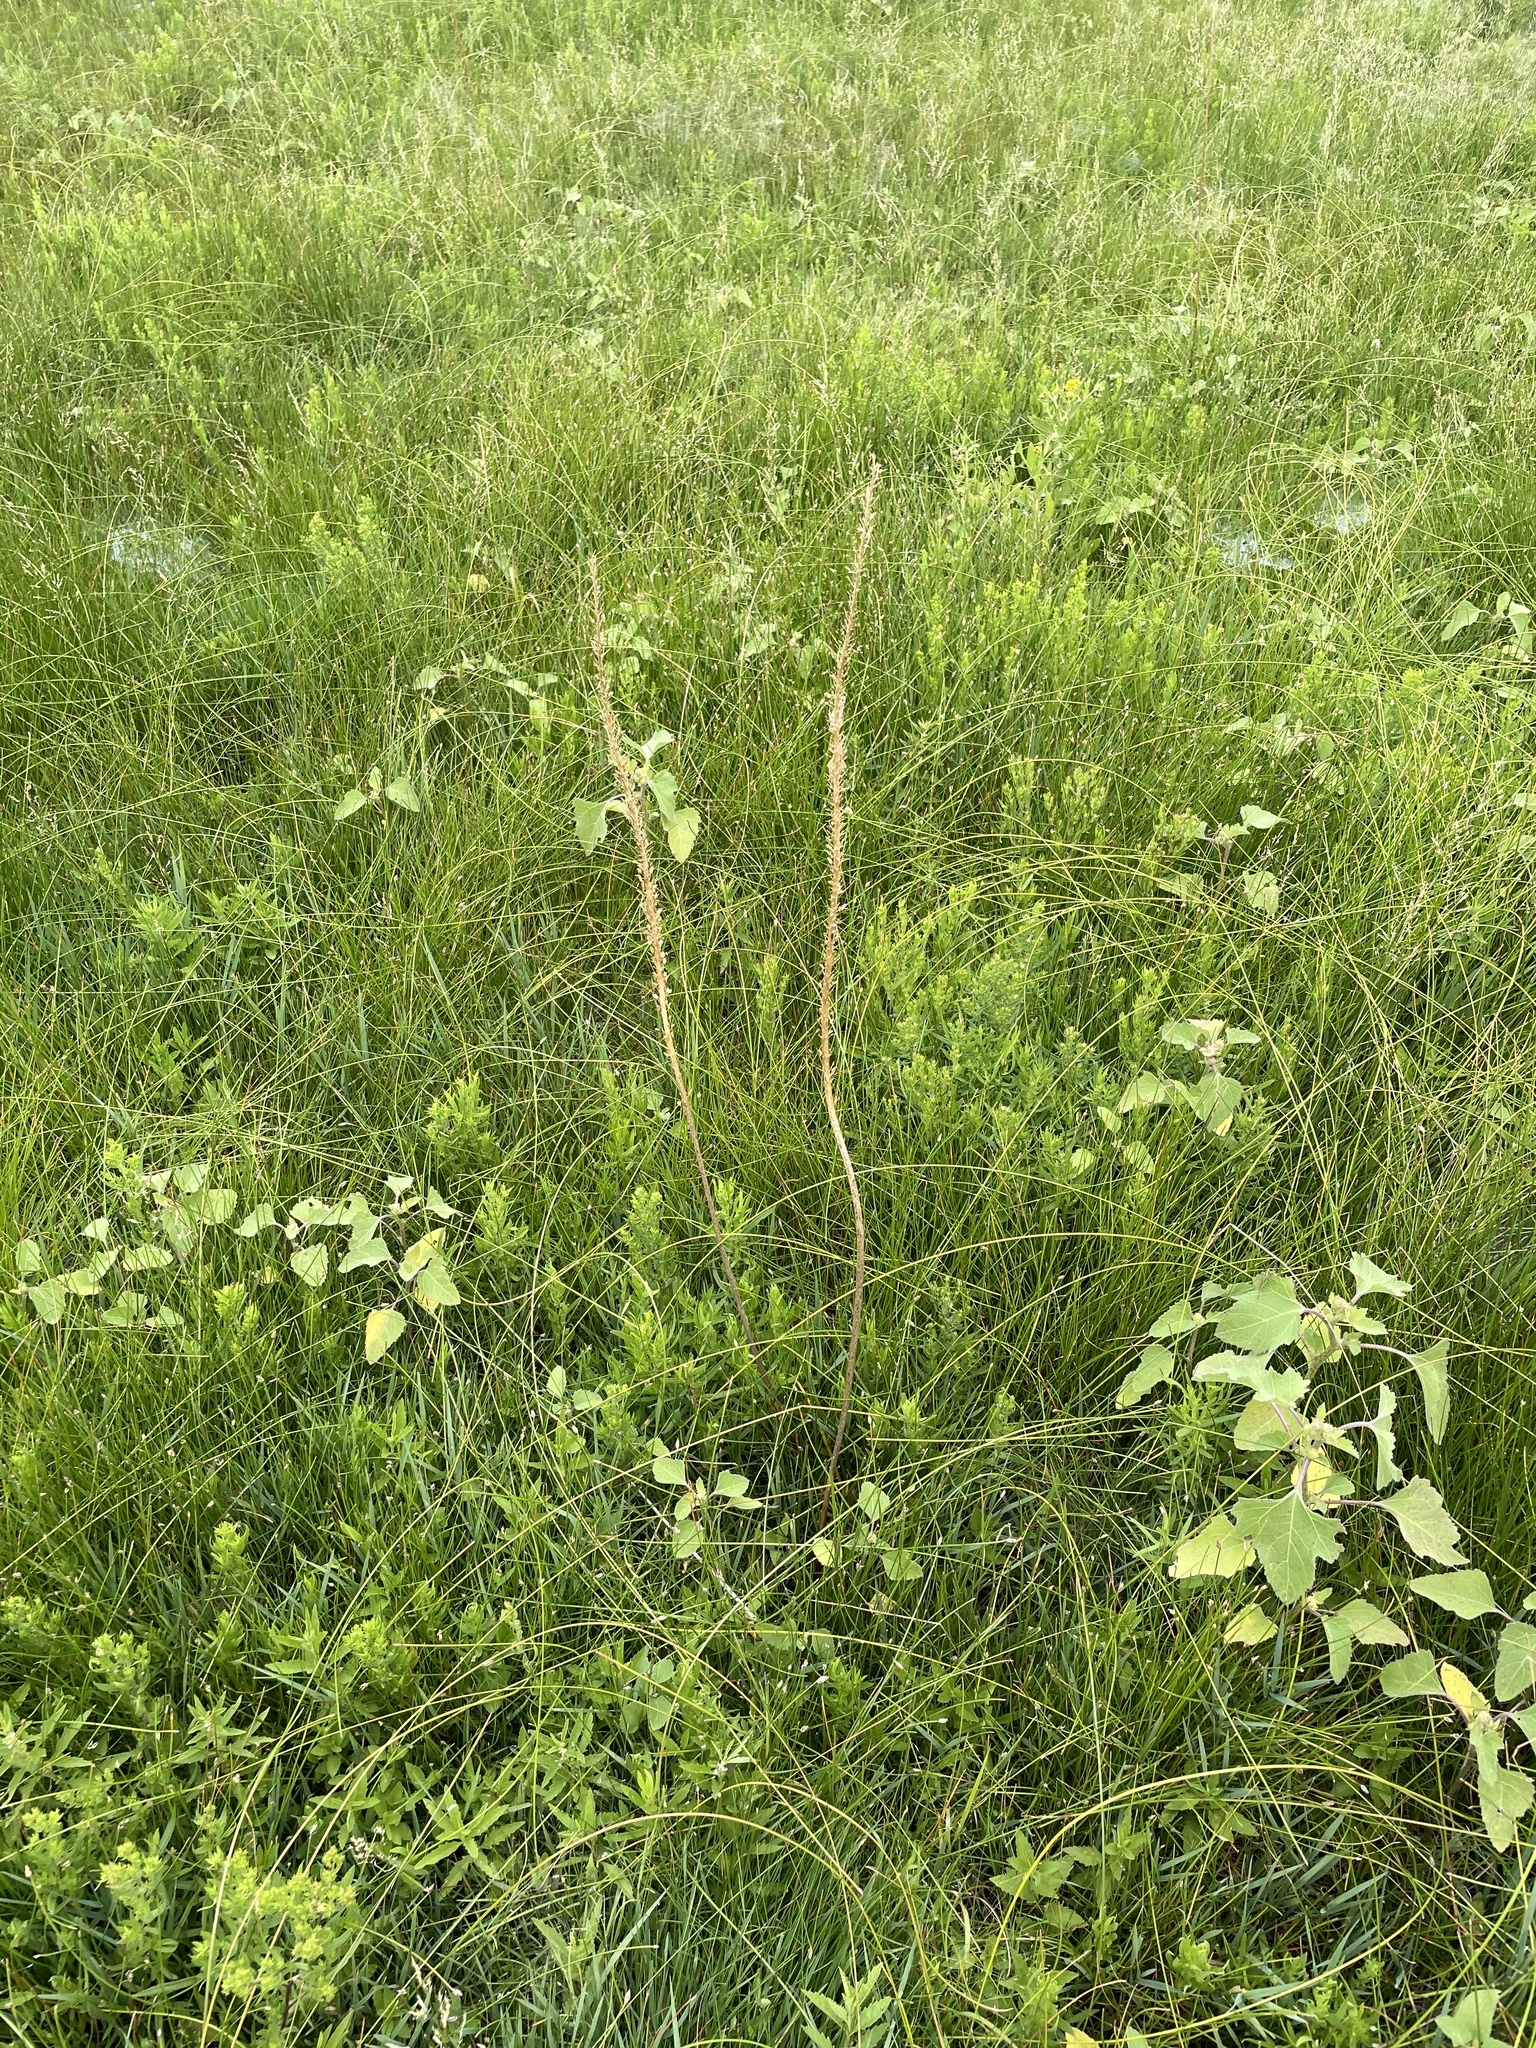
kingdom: Plantae
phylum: Tracheophyta
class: Liliopsida
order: Alismatales
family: Juncaginaceae
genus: Triglochin
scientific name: Triglochin maritima
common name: Sea arrowgrass
